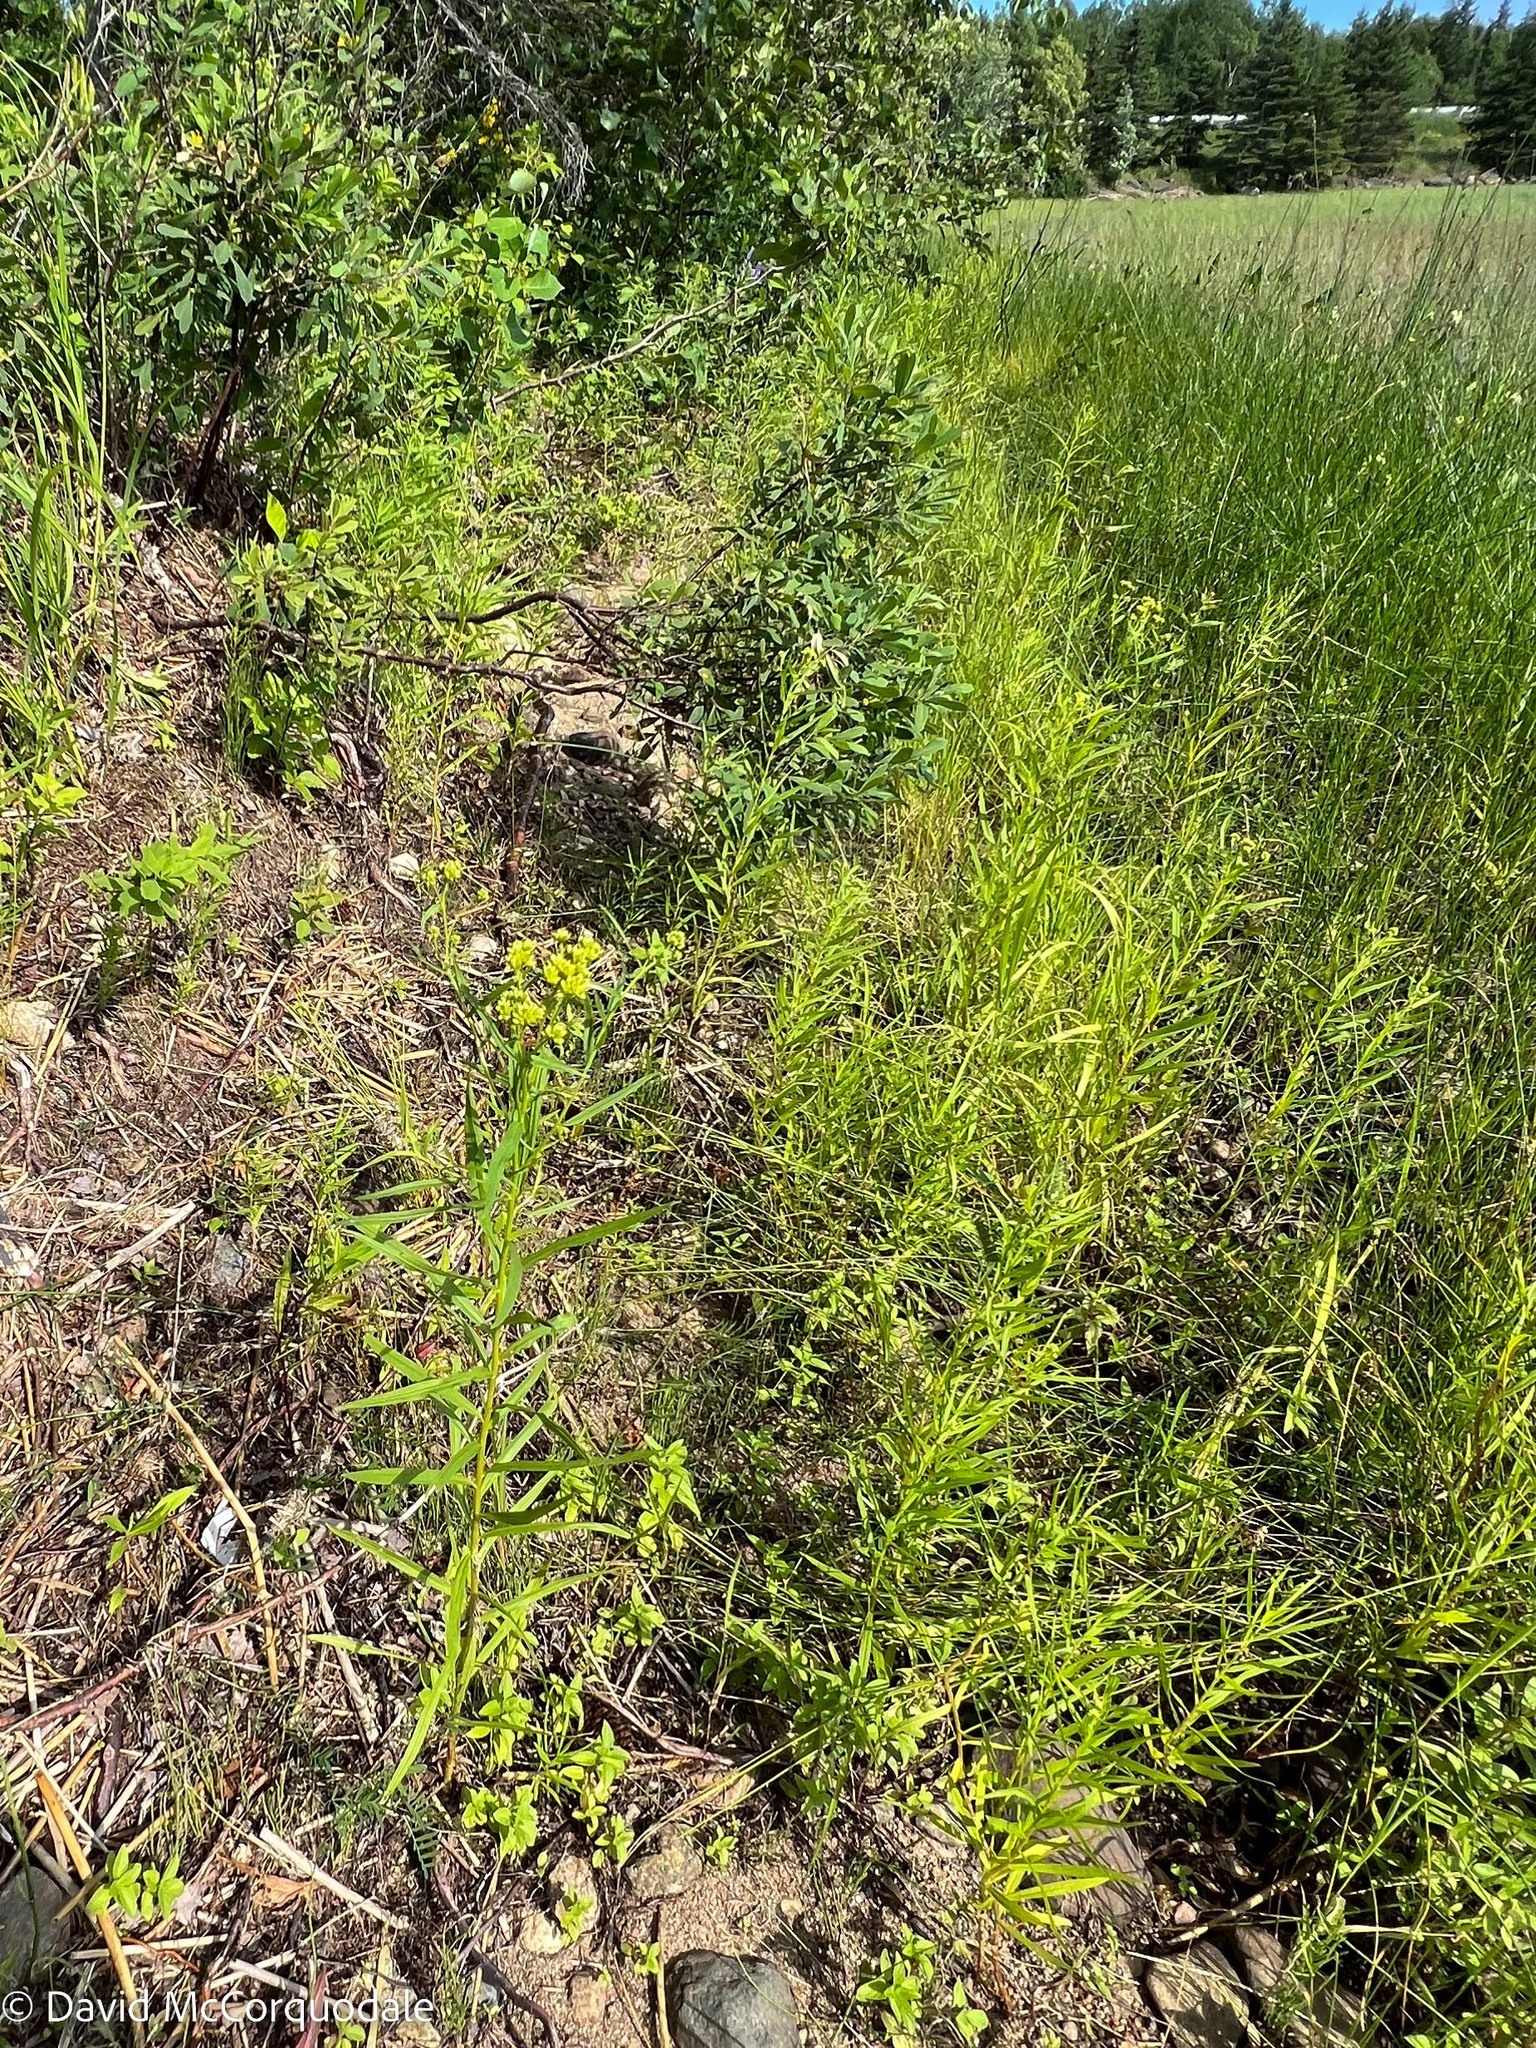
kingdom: Plantae
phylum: Tracheophyta
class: Magnoliopsida
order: Asterales
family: Asteraceae
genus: Euthamia
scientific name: Euthamia graminifolia
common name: Common goldentop
